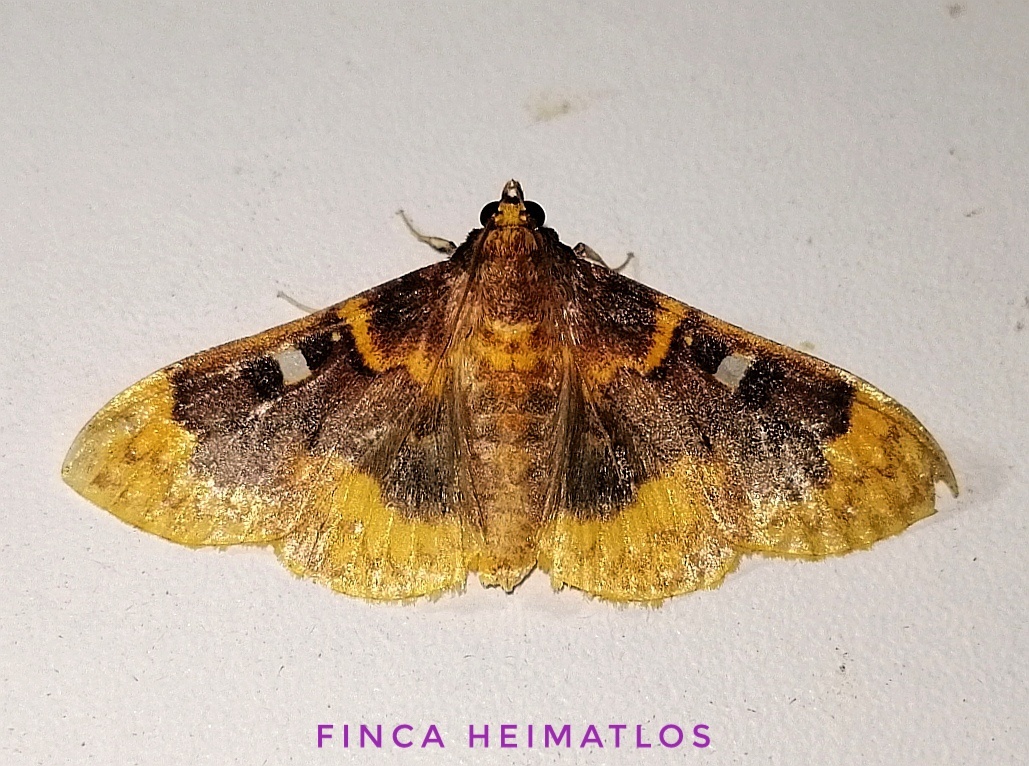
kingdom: Animalia
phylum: Arthropoda
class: Insecta
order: Lepidoptera
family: Crambidae
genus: Polygrammodes
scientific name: Polygrammodes multifenestrata
